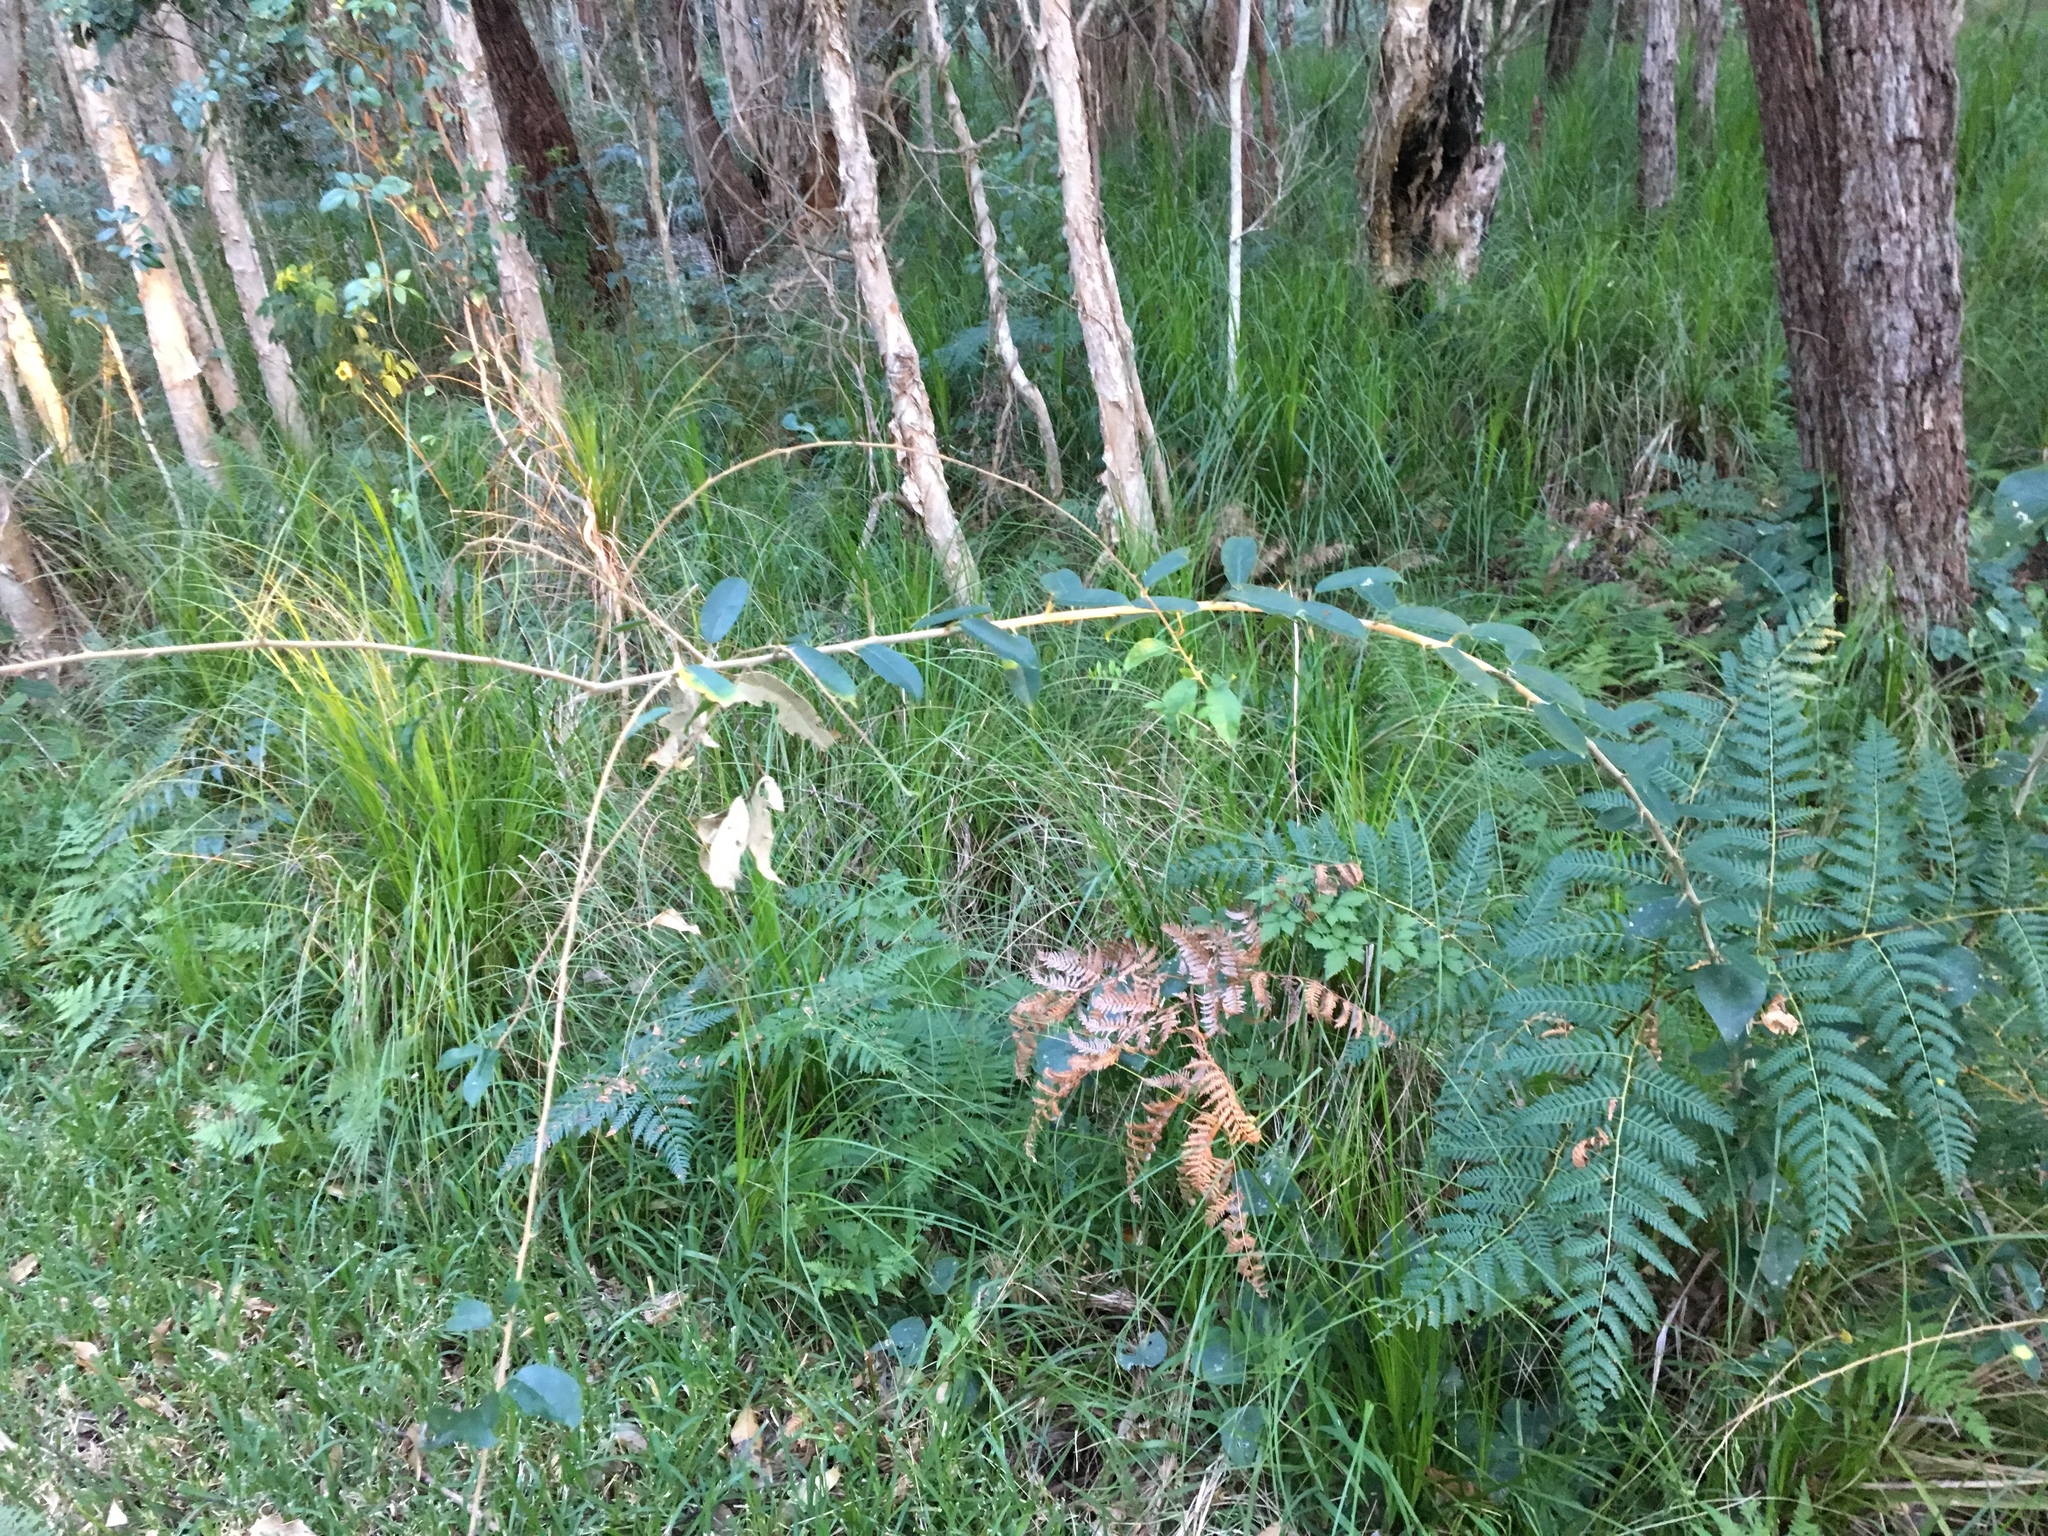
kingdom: Plantae
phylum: Tracheophyta
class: Magnoliopsida
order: Rosales
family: Moraceae
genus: Maclura
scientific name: Maclura cochinchinensis
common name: Cockspurthorn
